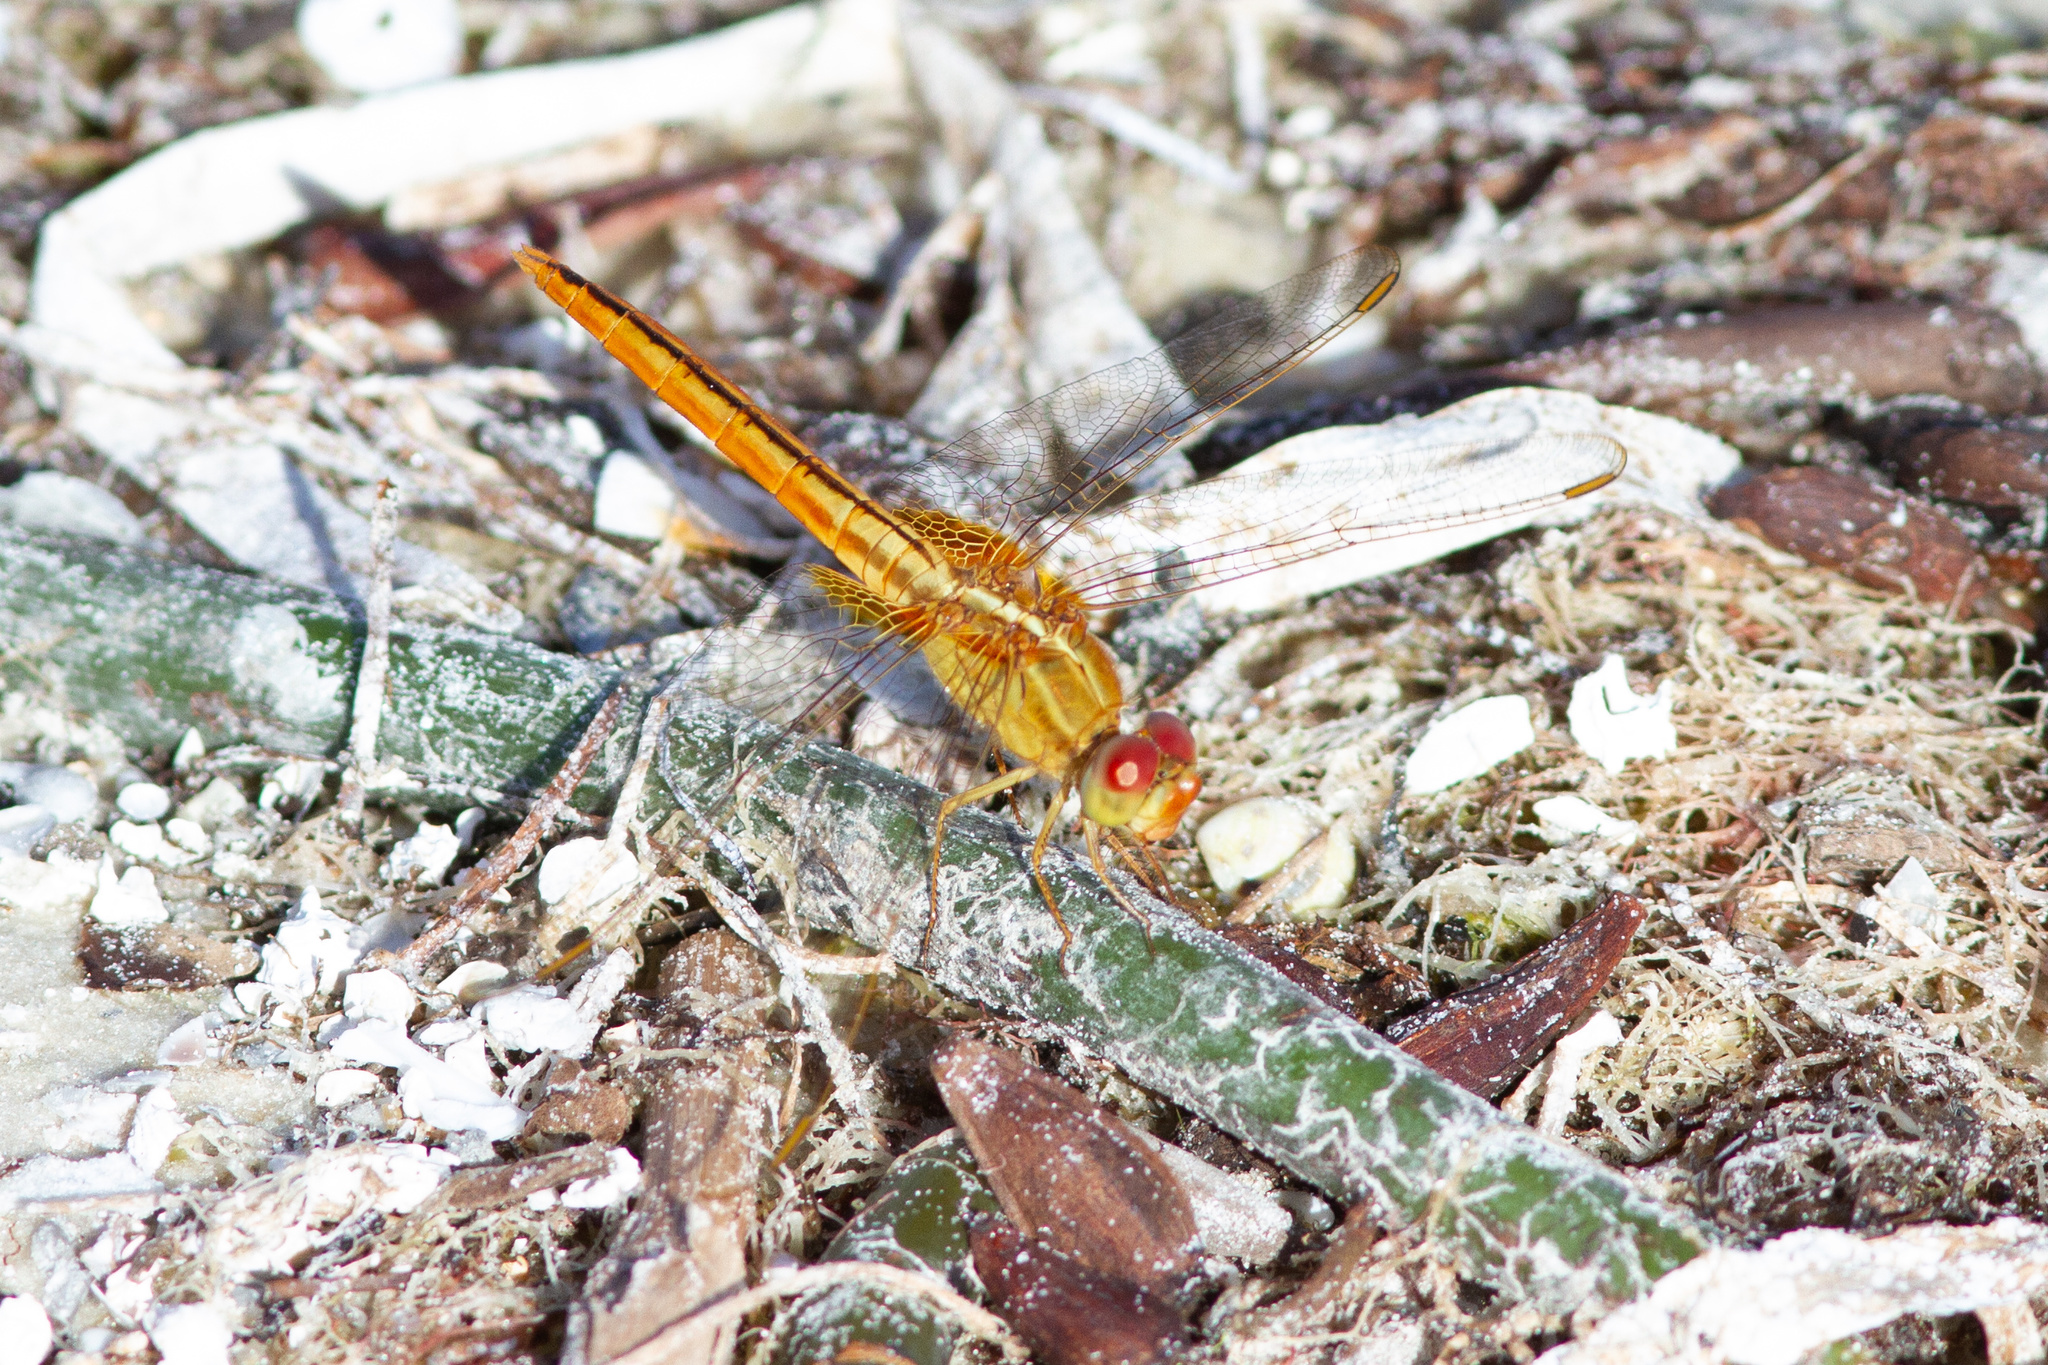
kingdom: Animalia
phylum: Arthropoda
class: Insecta
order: Odonata
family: Libellulidae
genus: Crocothemis
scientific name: Crocothemis servilia
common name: Scarlet skimmer
